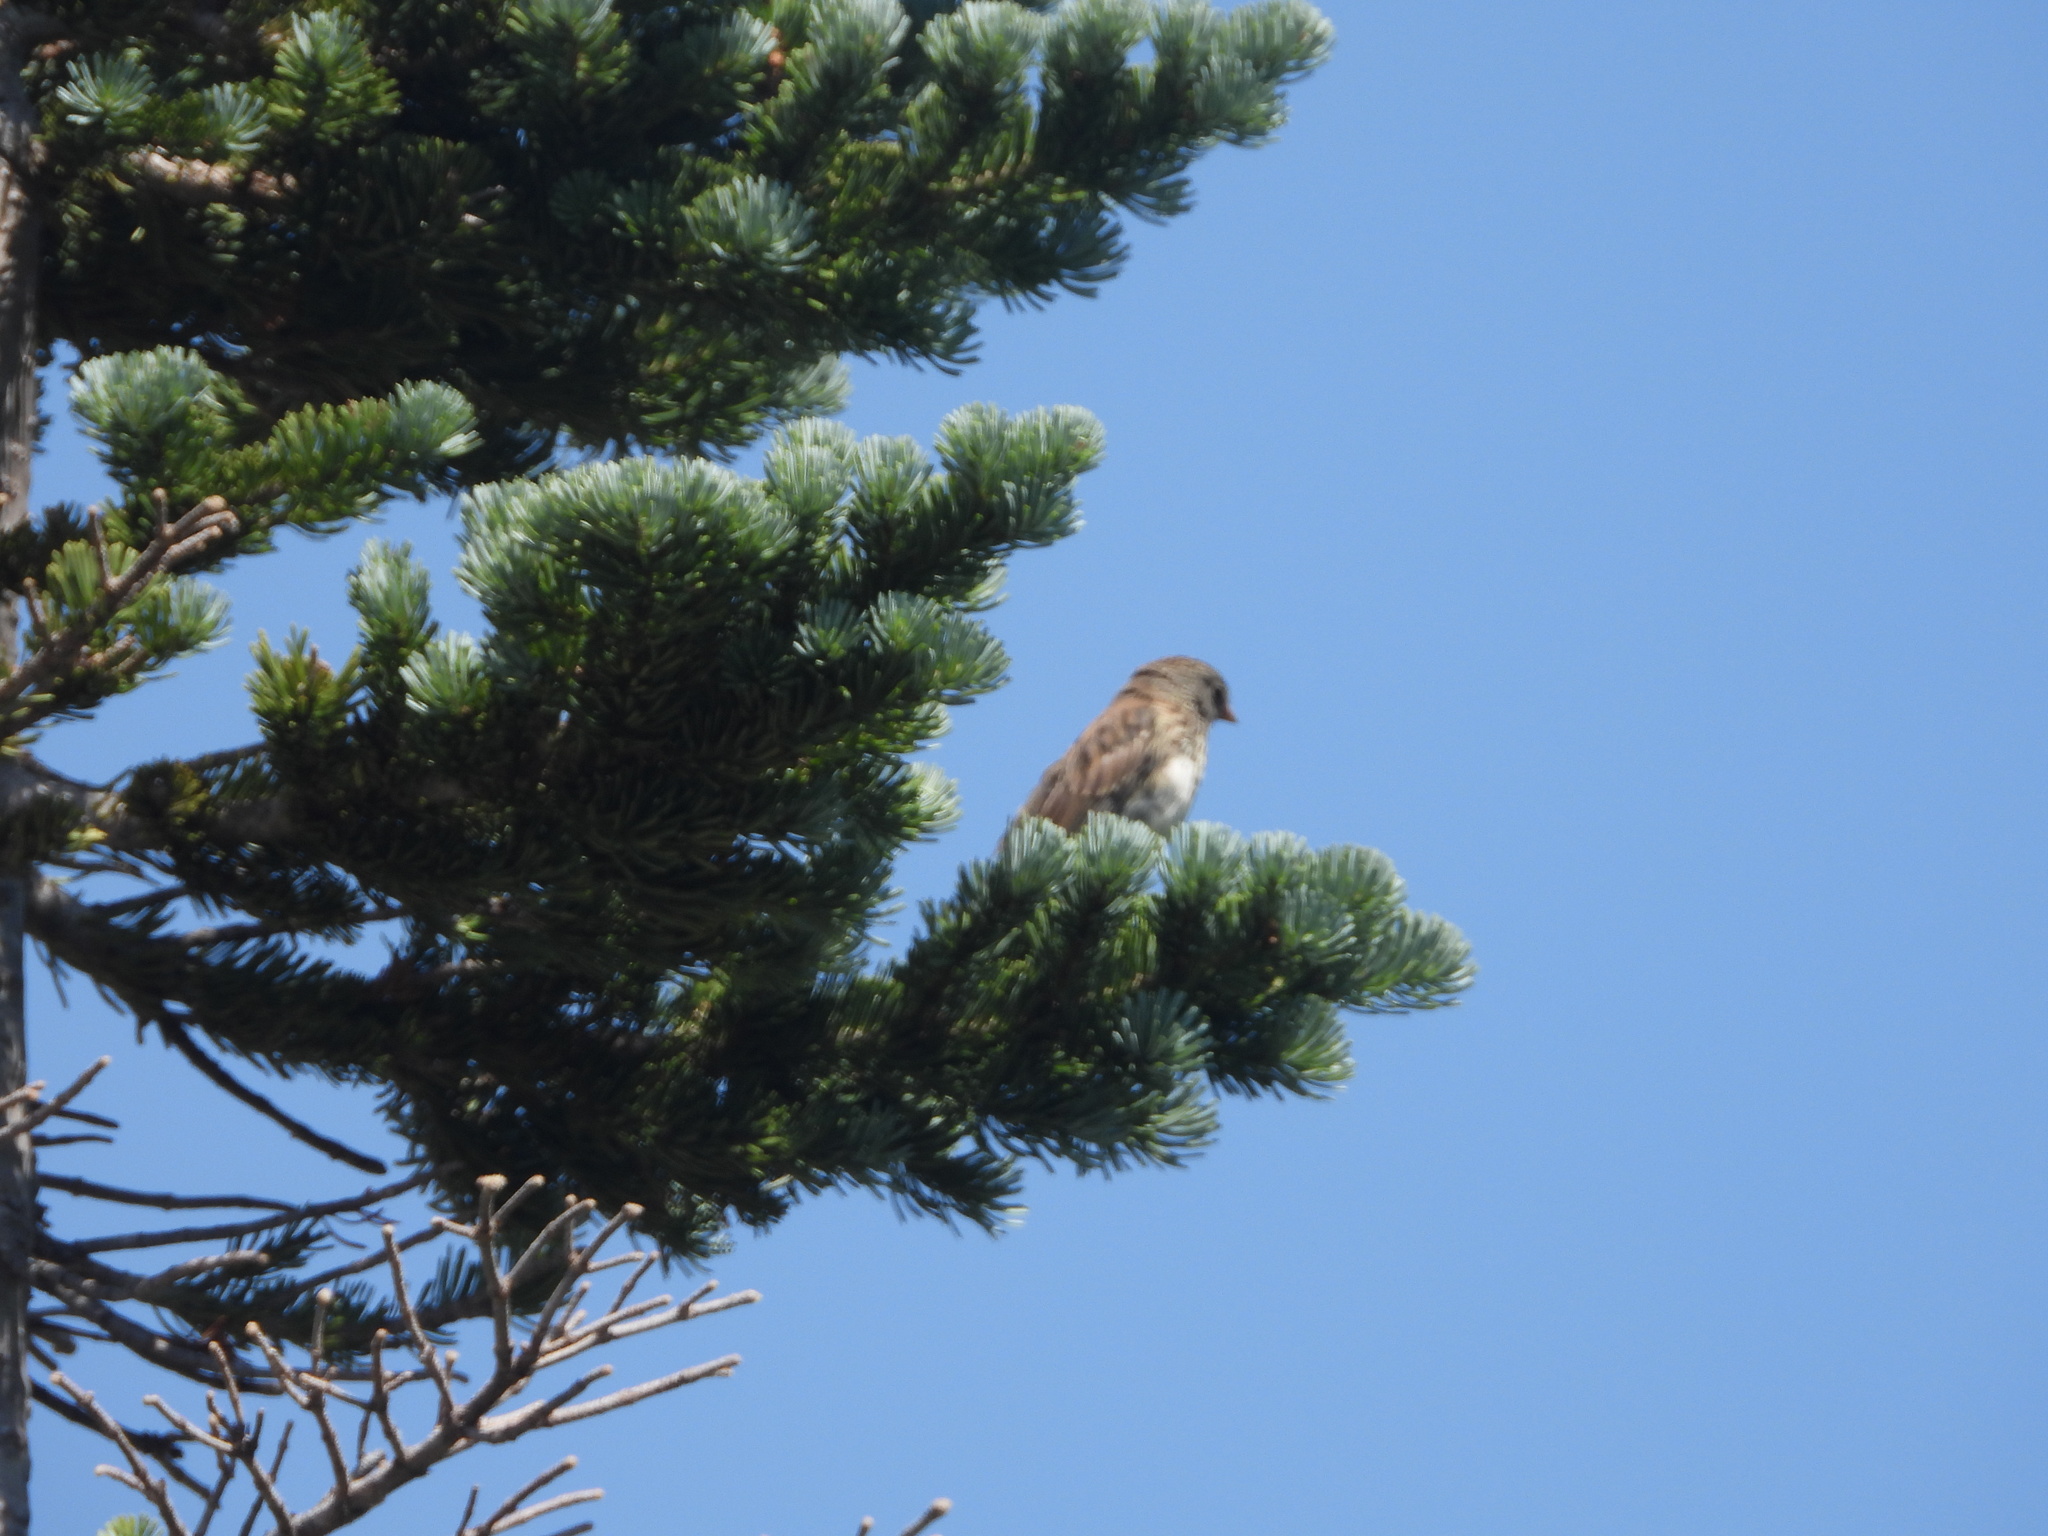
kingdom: Animalia
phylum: Chordata
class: Aves
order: Passeriformes
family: Passerellidae
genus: Junco
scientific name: Junco hyemalis
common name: Dark-eyed junco
